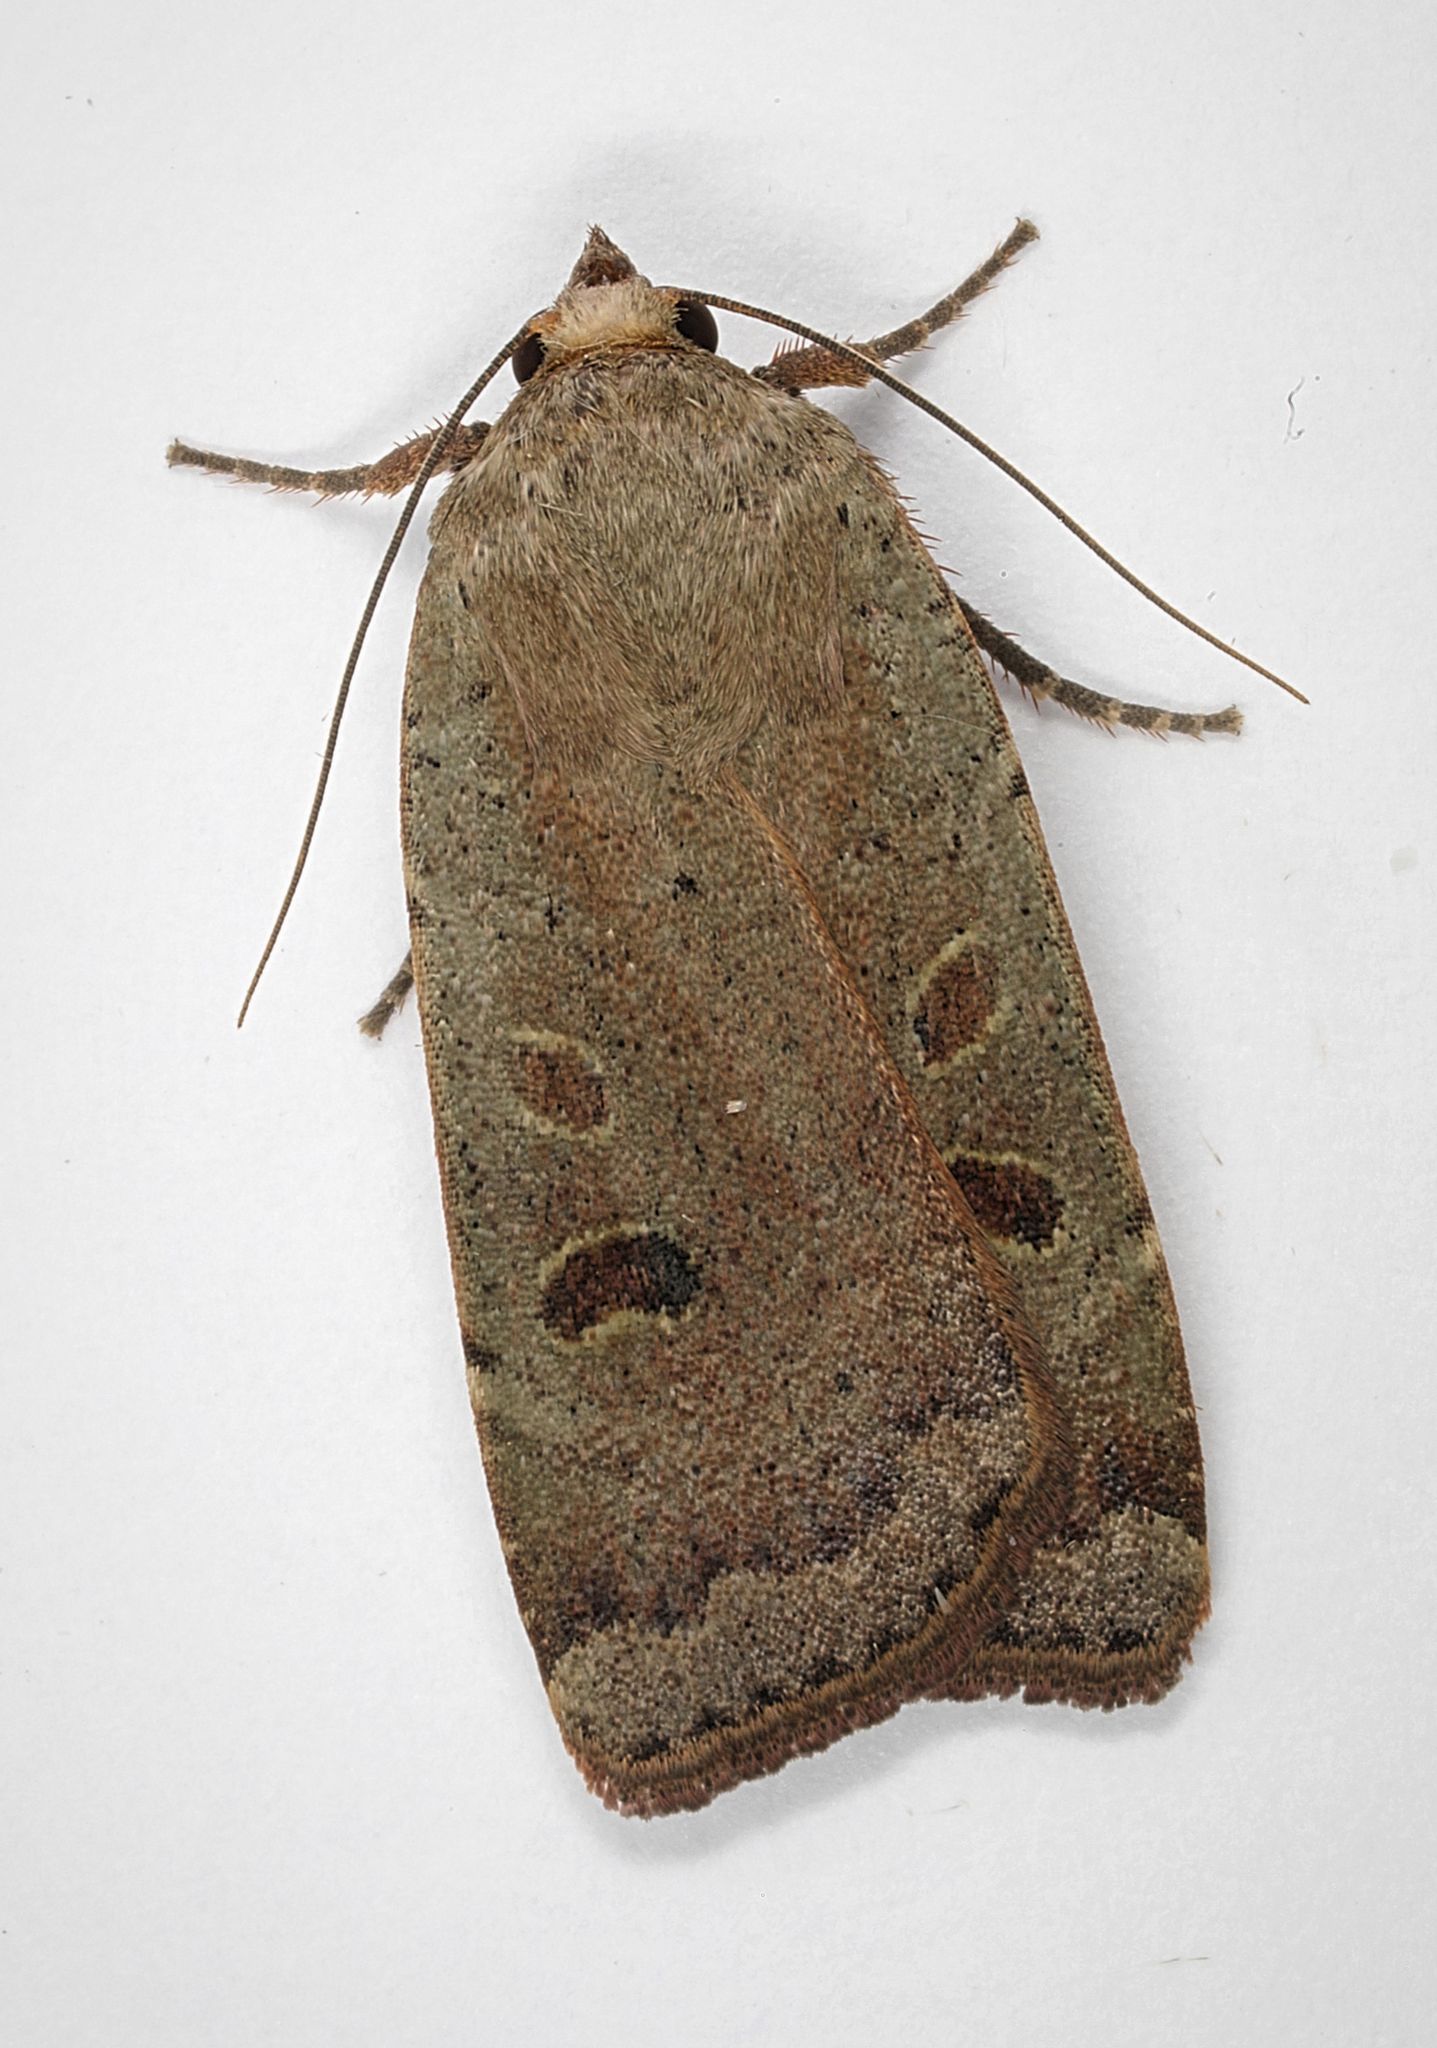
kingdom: Animalia
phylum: Arthropoda
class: Insecta
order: Lepidoptera
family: Noctuidae
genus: Noctua
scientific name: Noctua comes
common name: Lesser yellow underwing
